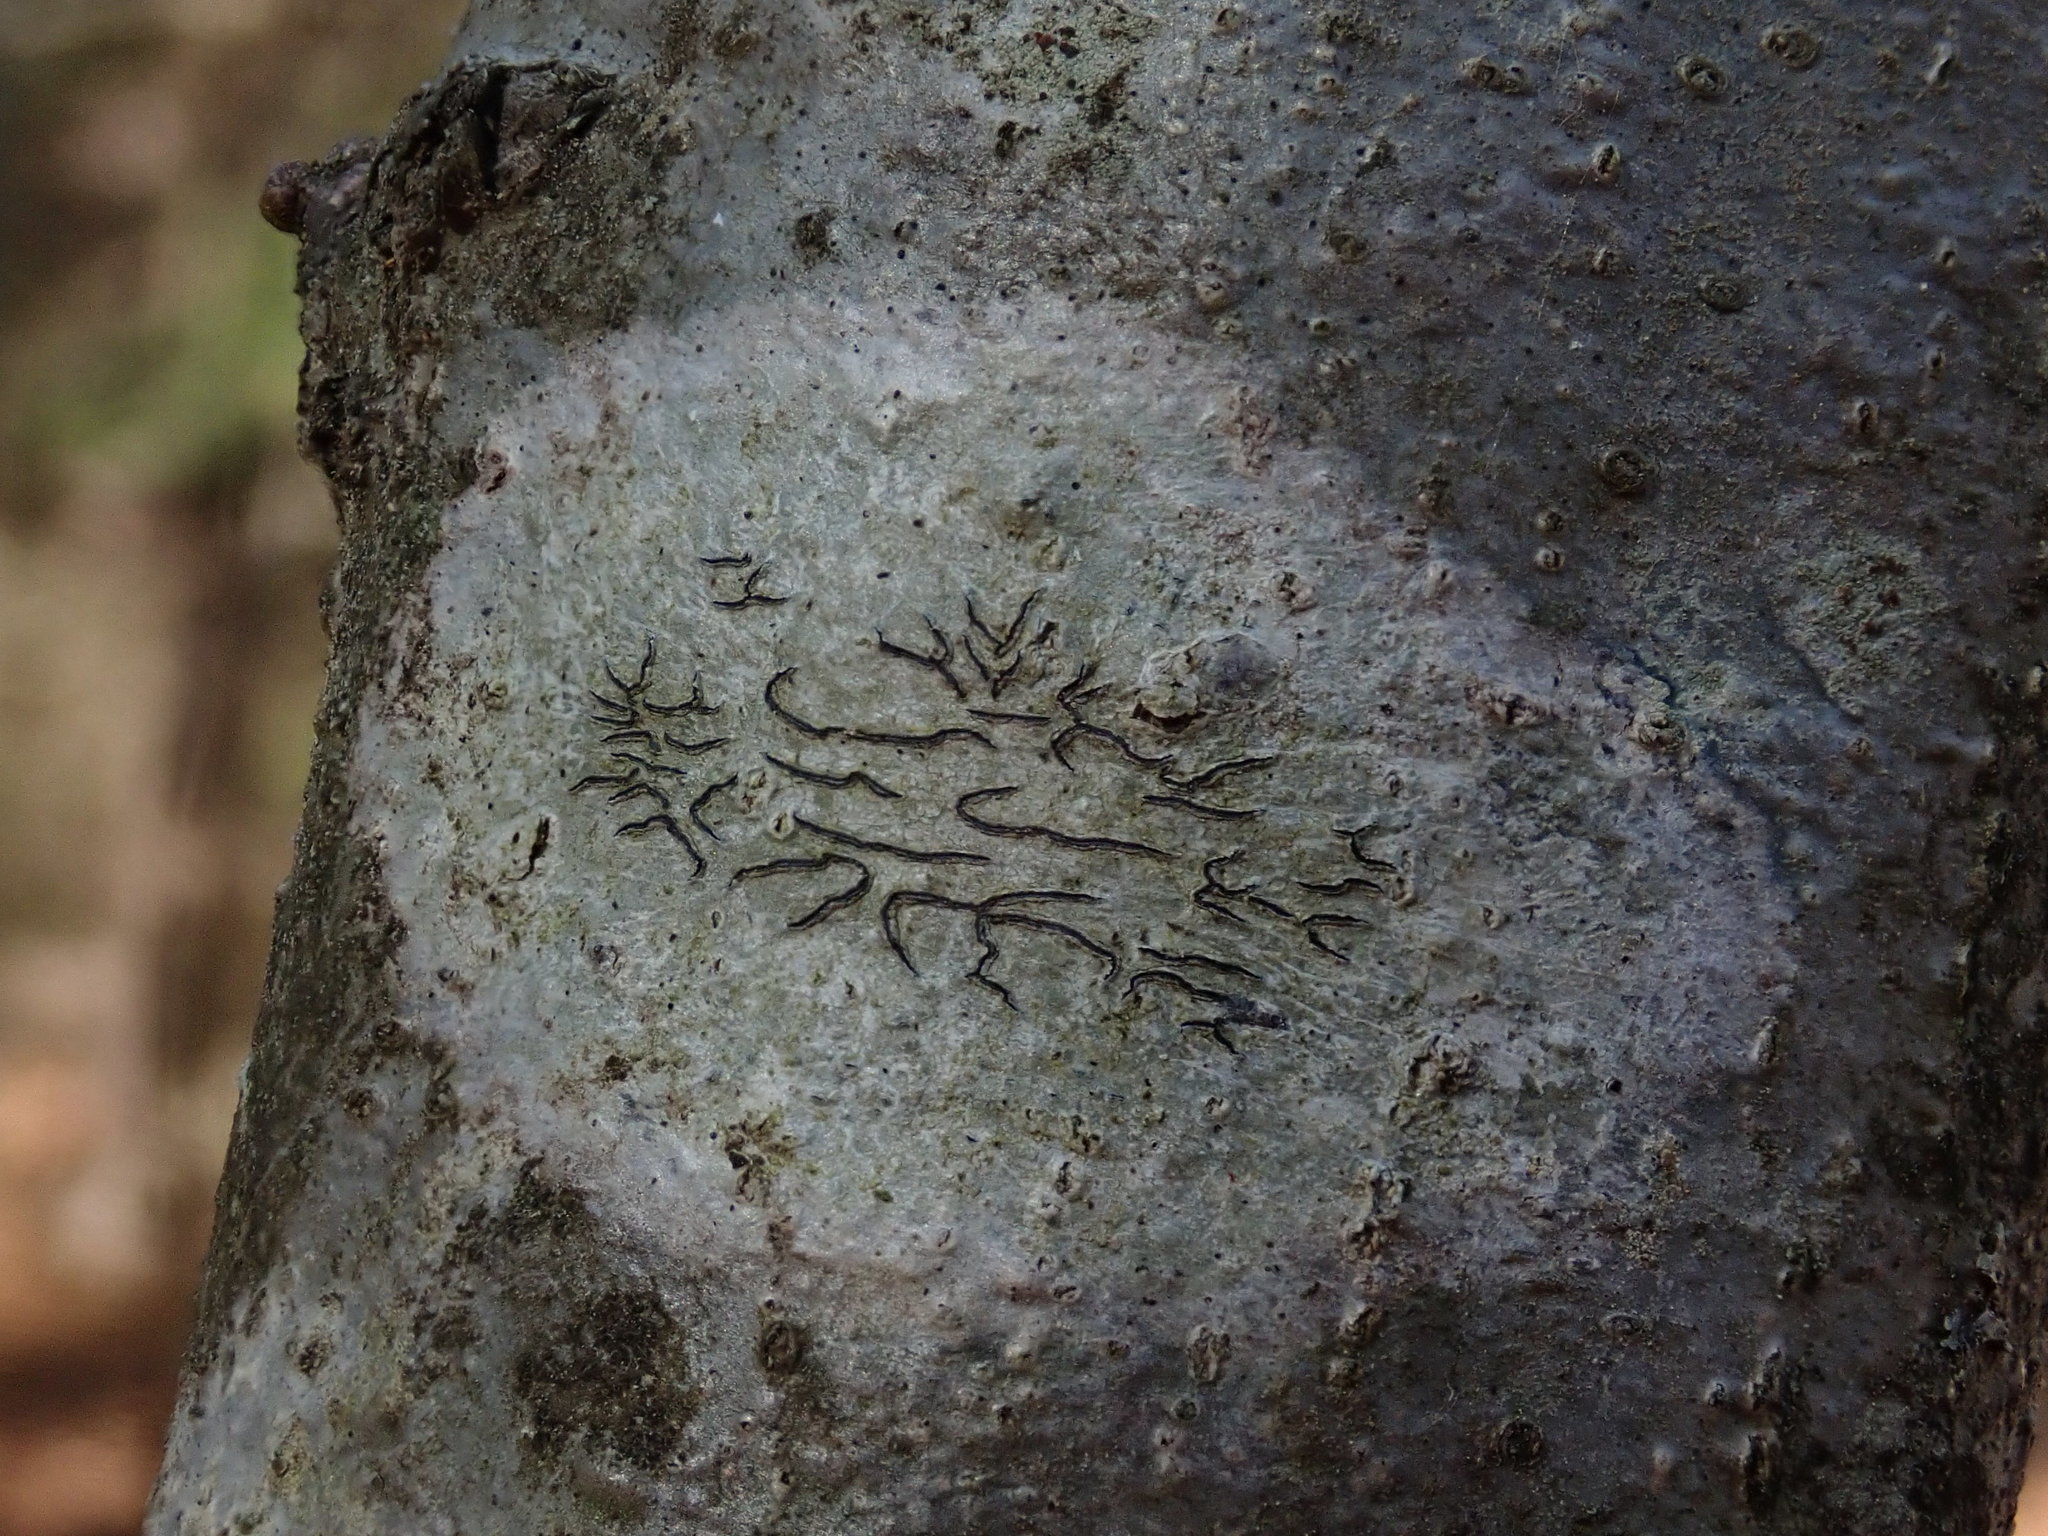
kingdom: Fungi
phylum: Ascomycota
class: Lecanoromycetes
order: Ostropales
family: Graphidaceae
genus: Graphis
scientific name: Graphis scripta
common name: Script lichen
